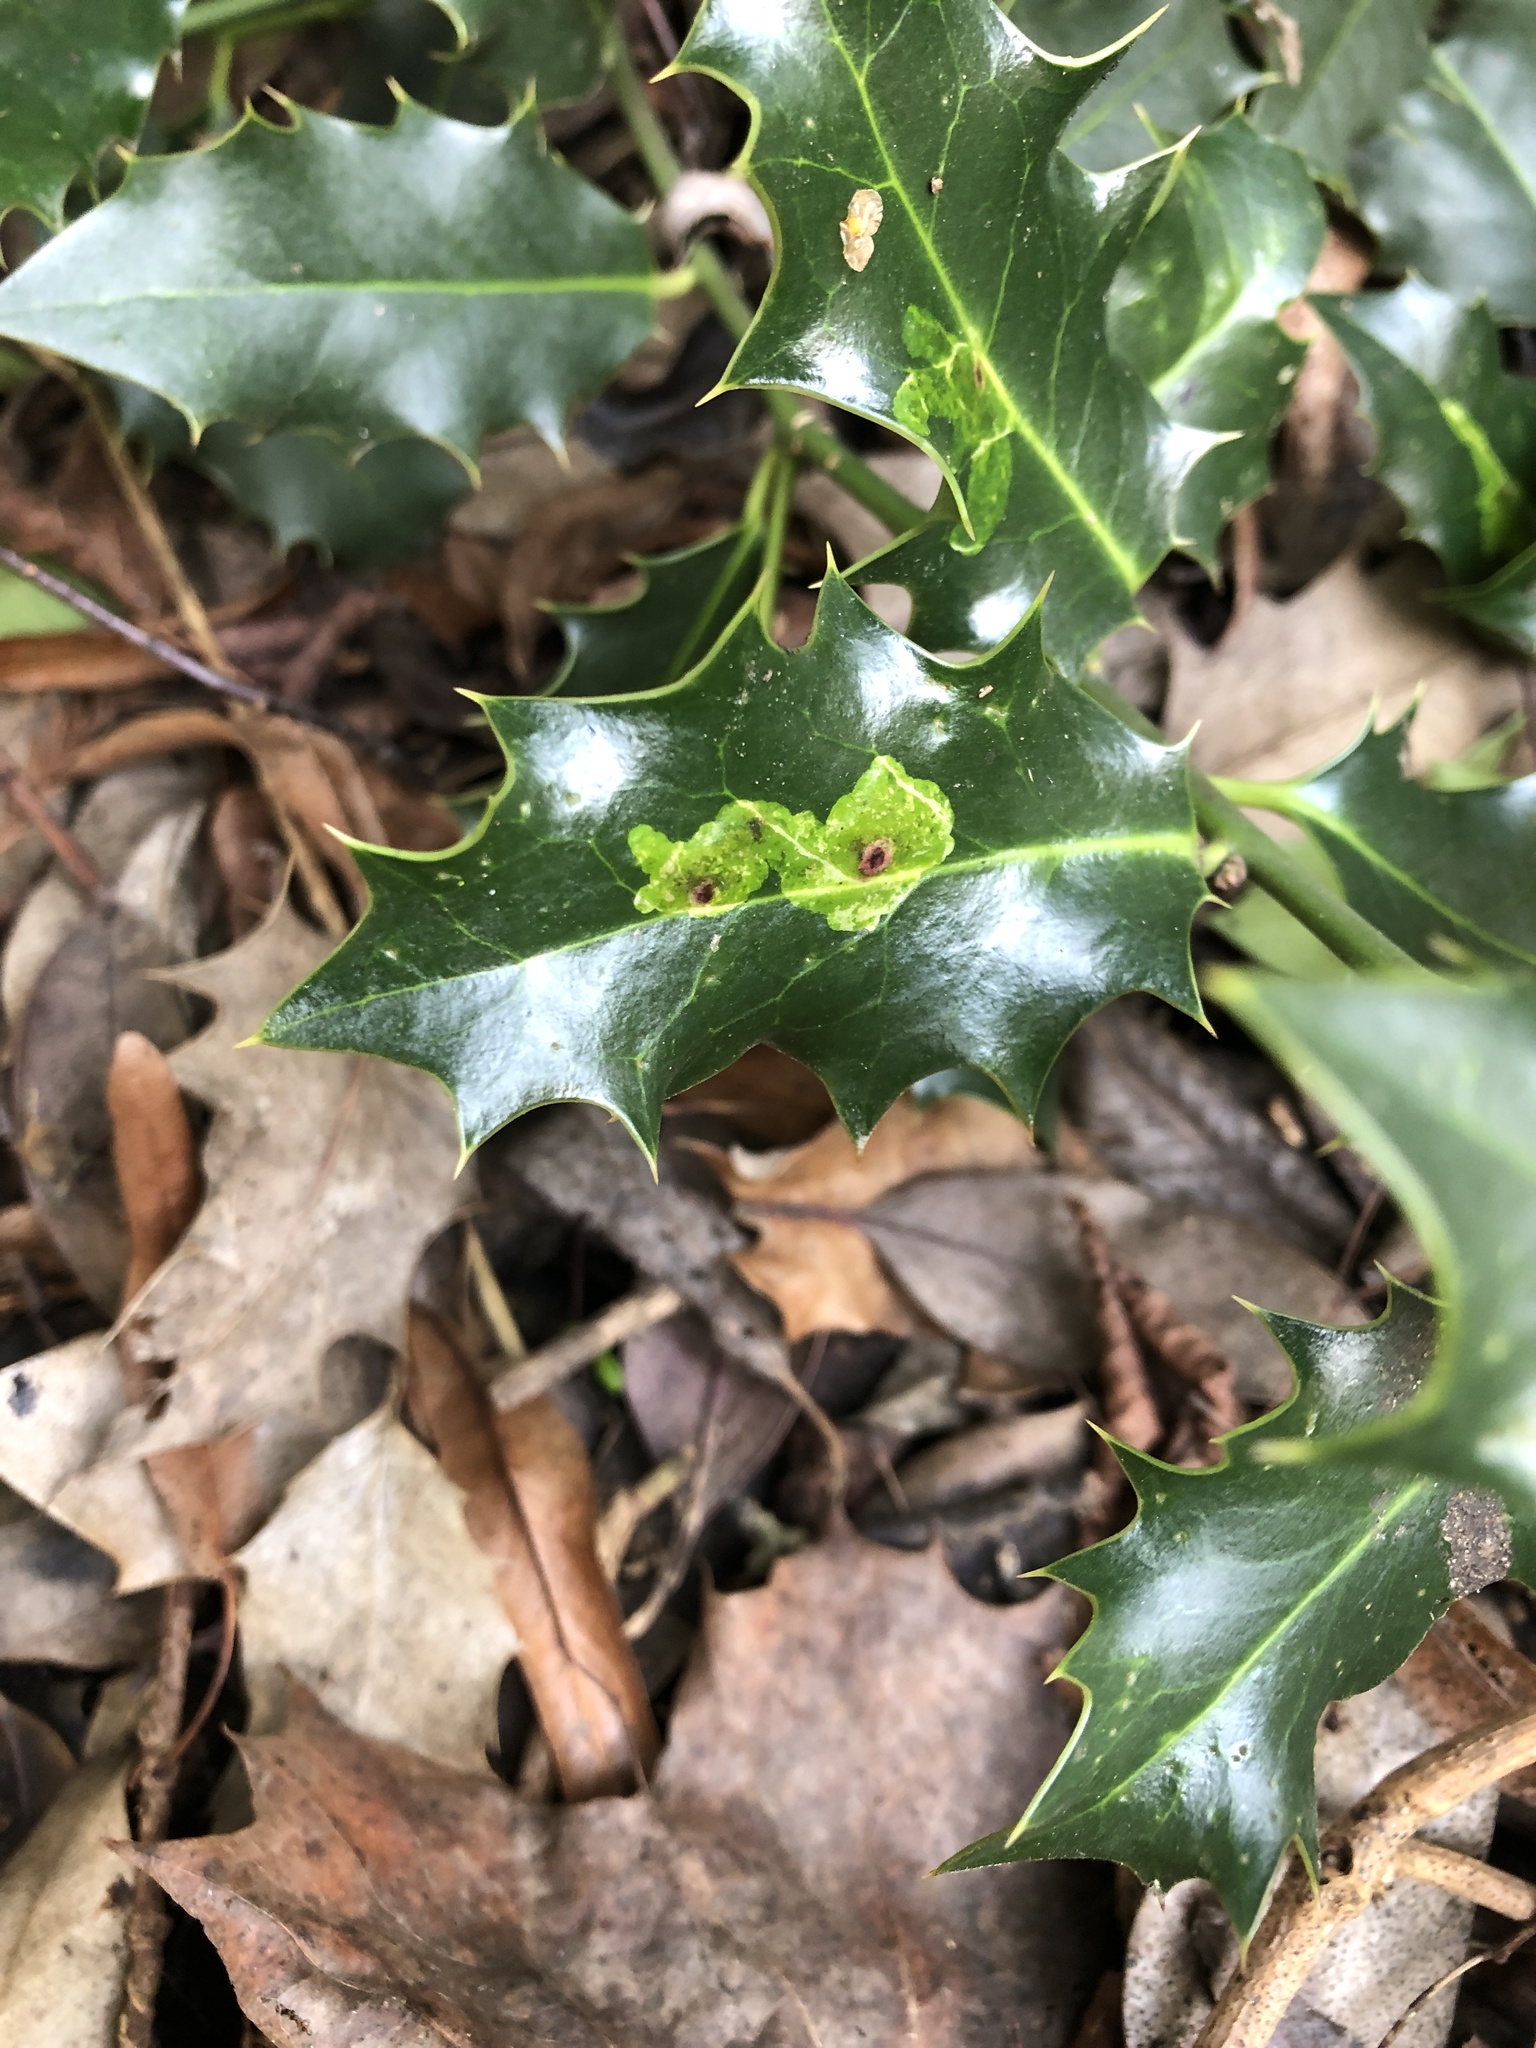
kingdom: Animalia
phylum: Arthropoda
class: Insecta
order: Diptera
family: Agromyzidae
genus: Phytomyza
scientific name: Phytomyza ilicis
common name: Holly leafminer
